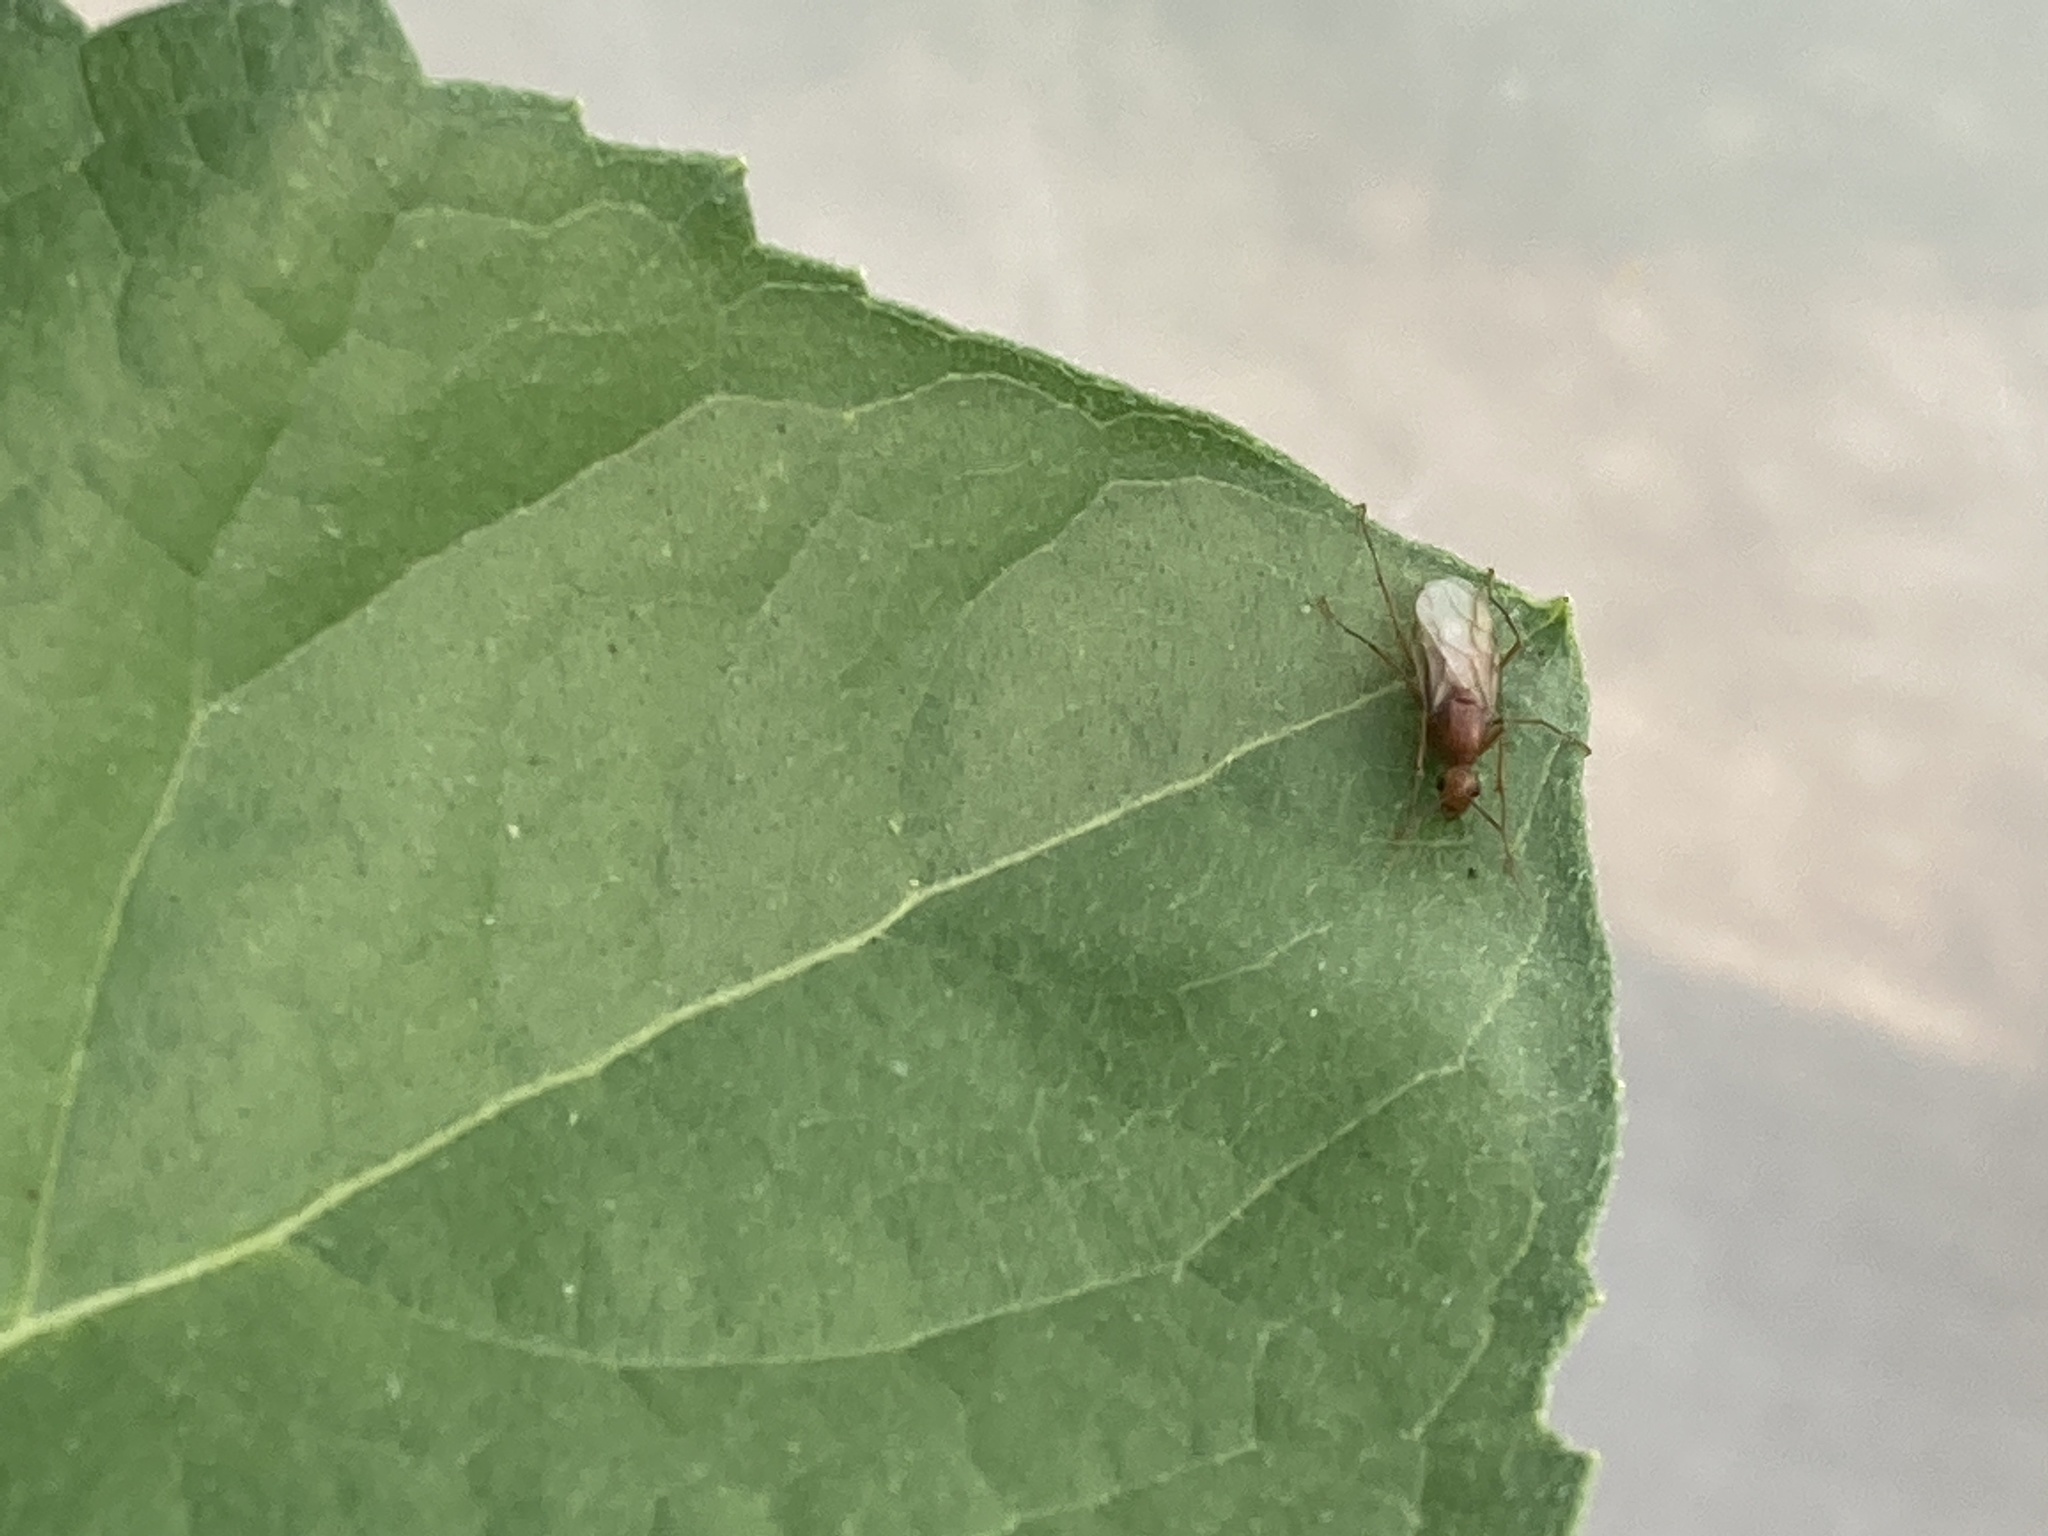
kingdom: Animalia
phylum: Arthropoda
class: Insecta
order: Hymenoptera
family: Formicidae
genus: Camponotus
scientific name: Camponotus castaneus
